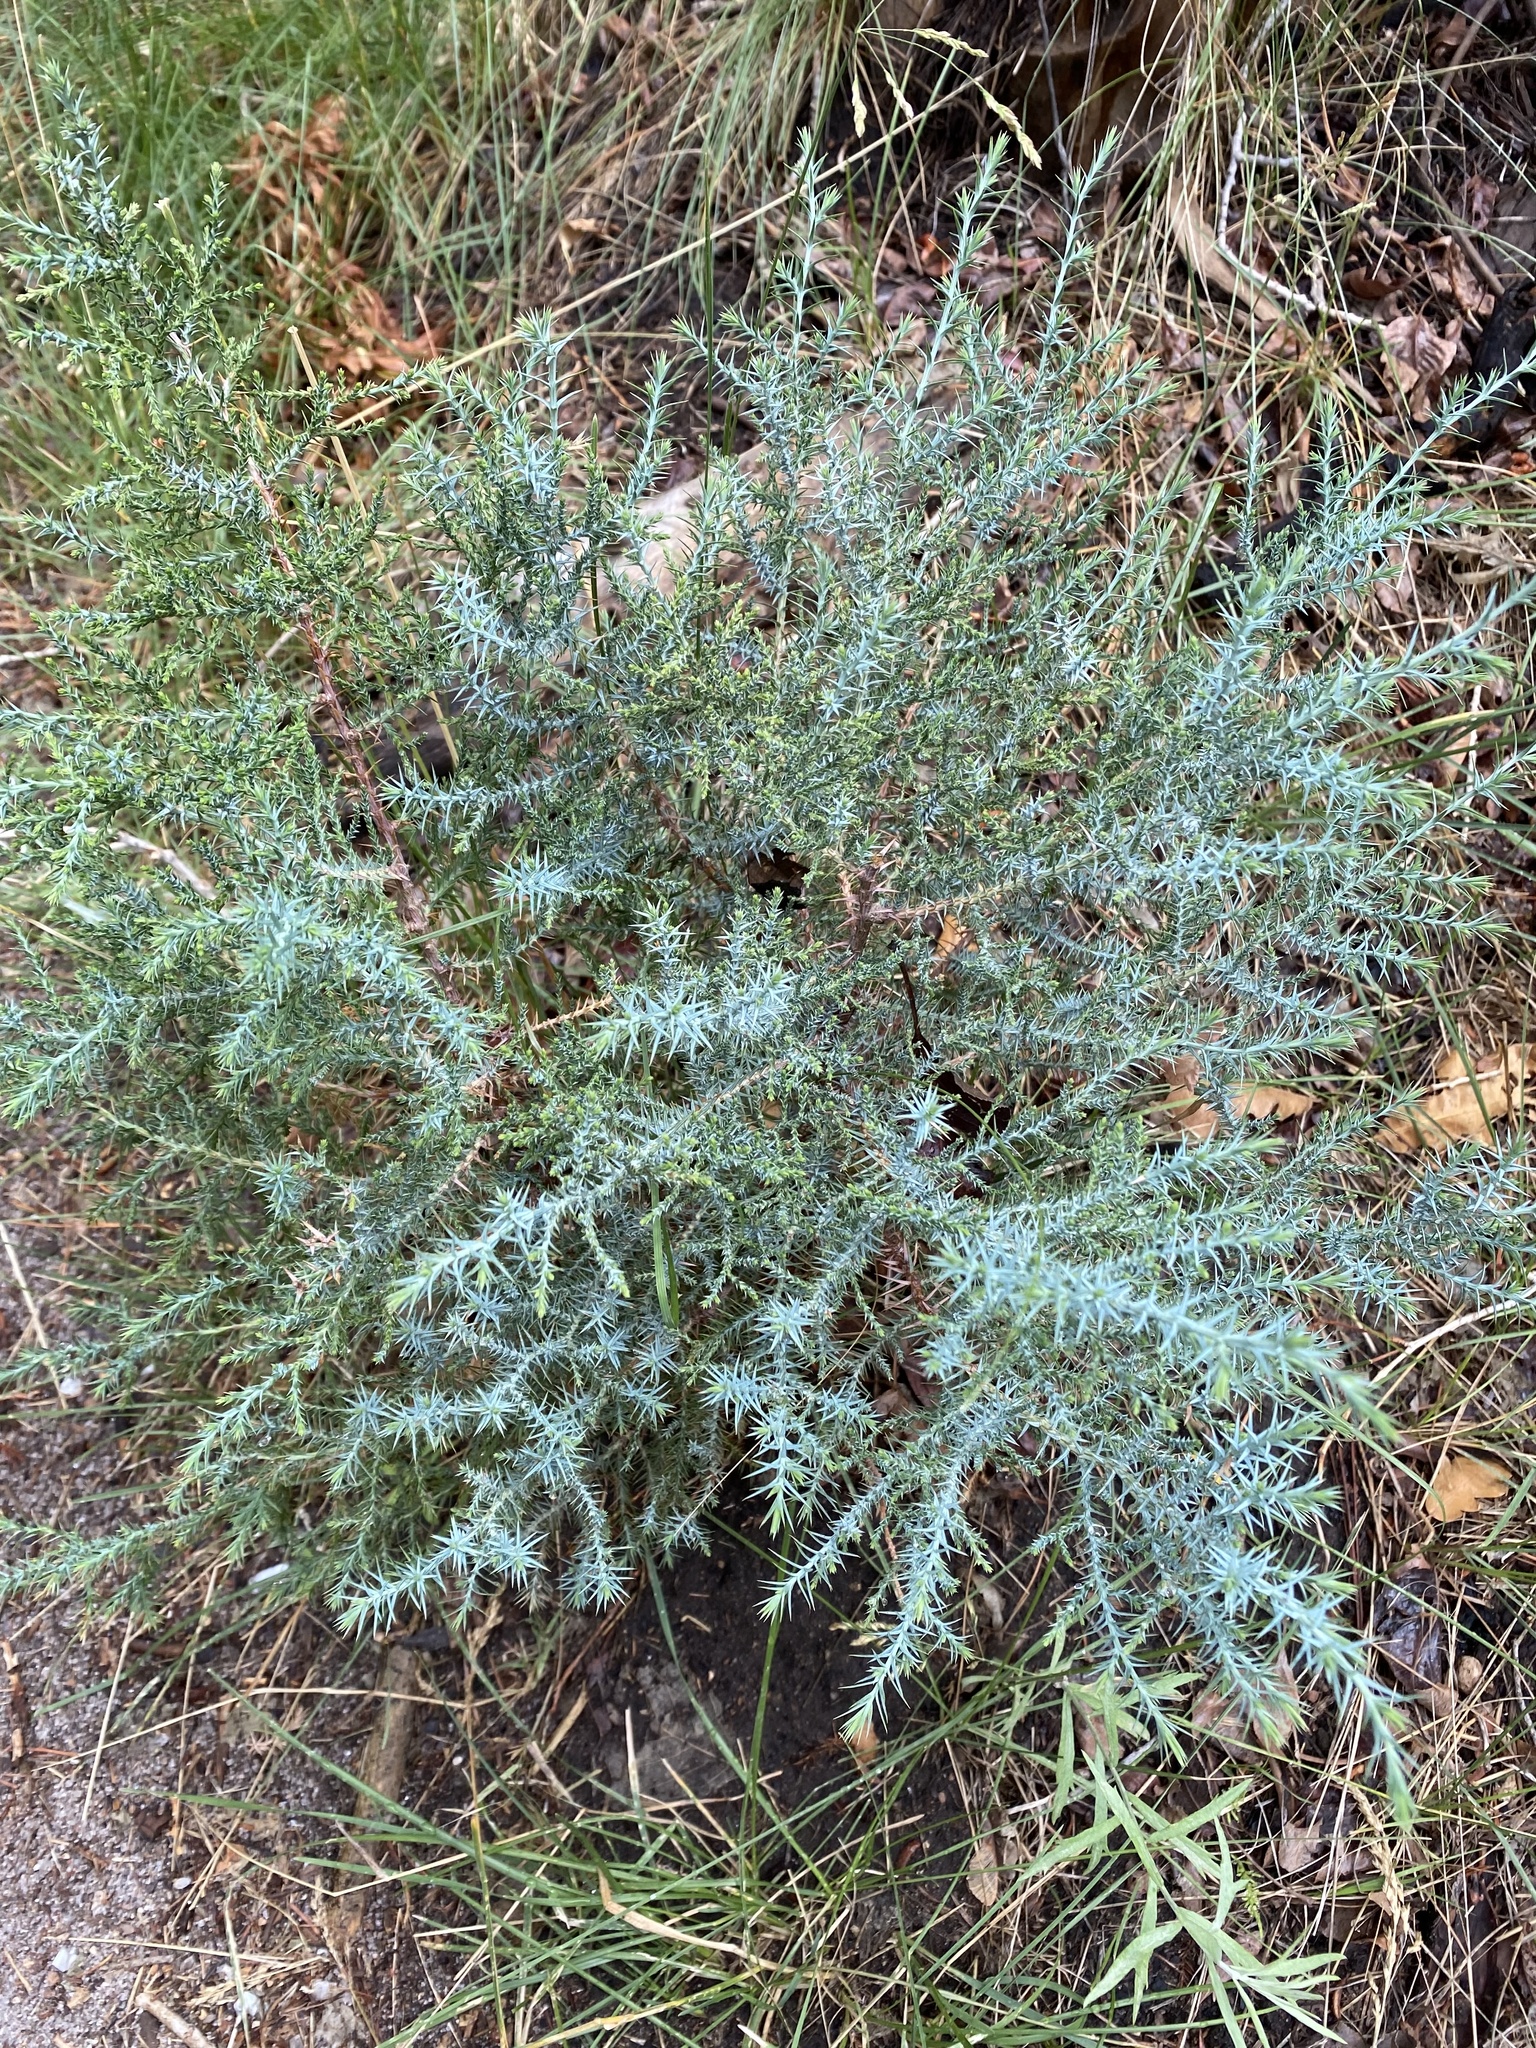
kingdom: Plantae
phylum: Tracheophyta
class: Pinopsida
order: Pinales
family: Cupressaceae
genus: Juniperus
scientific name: Juniperus deppeana
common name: Alligator juniper
